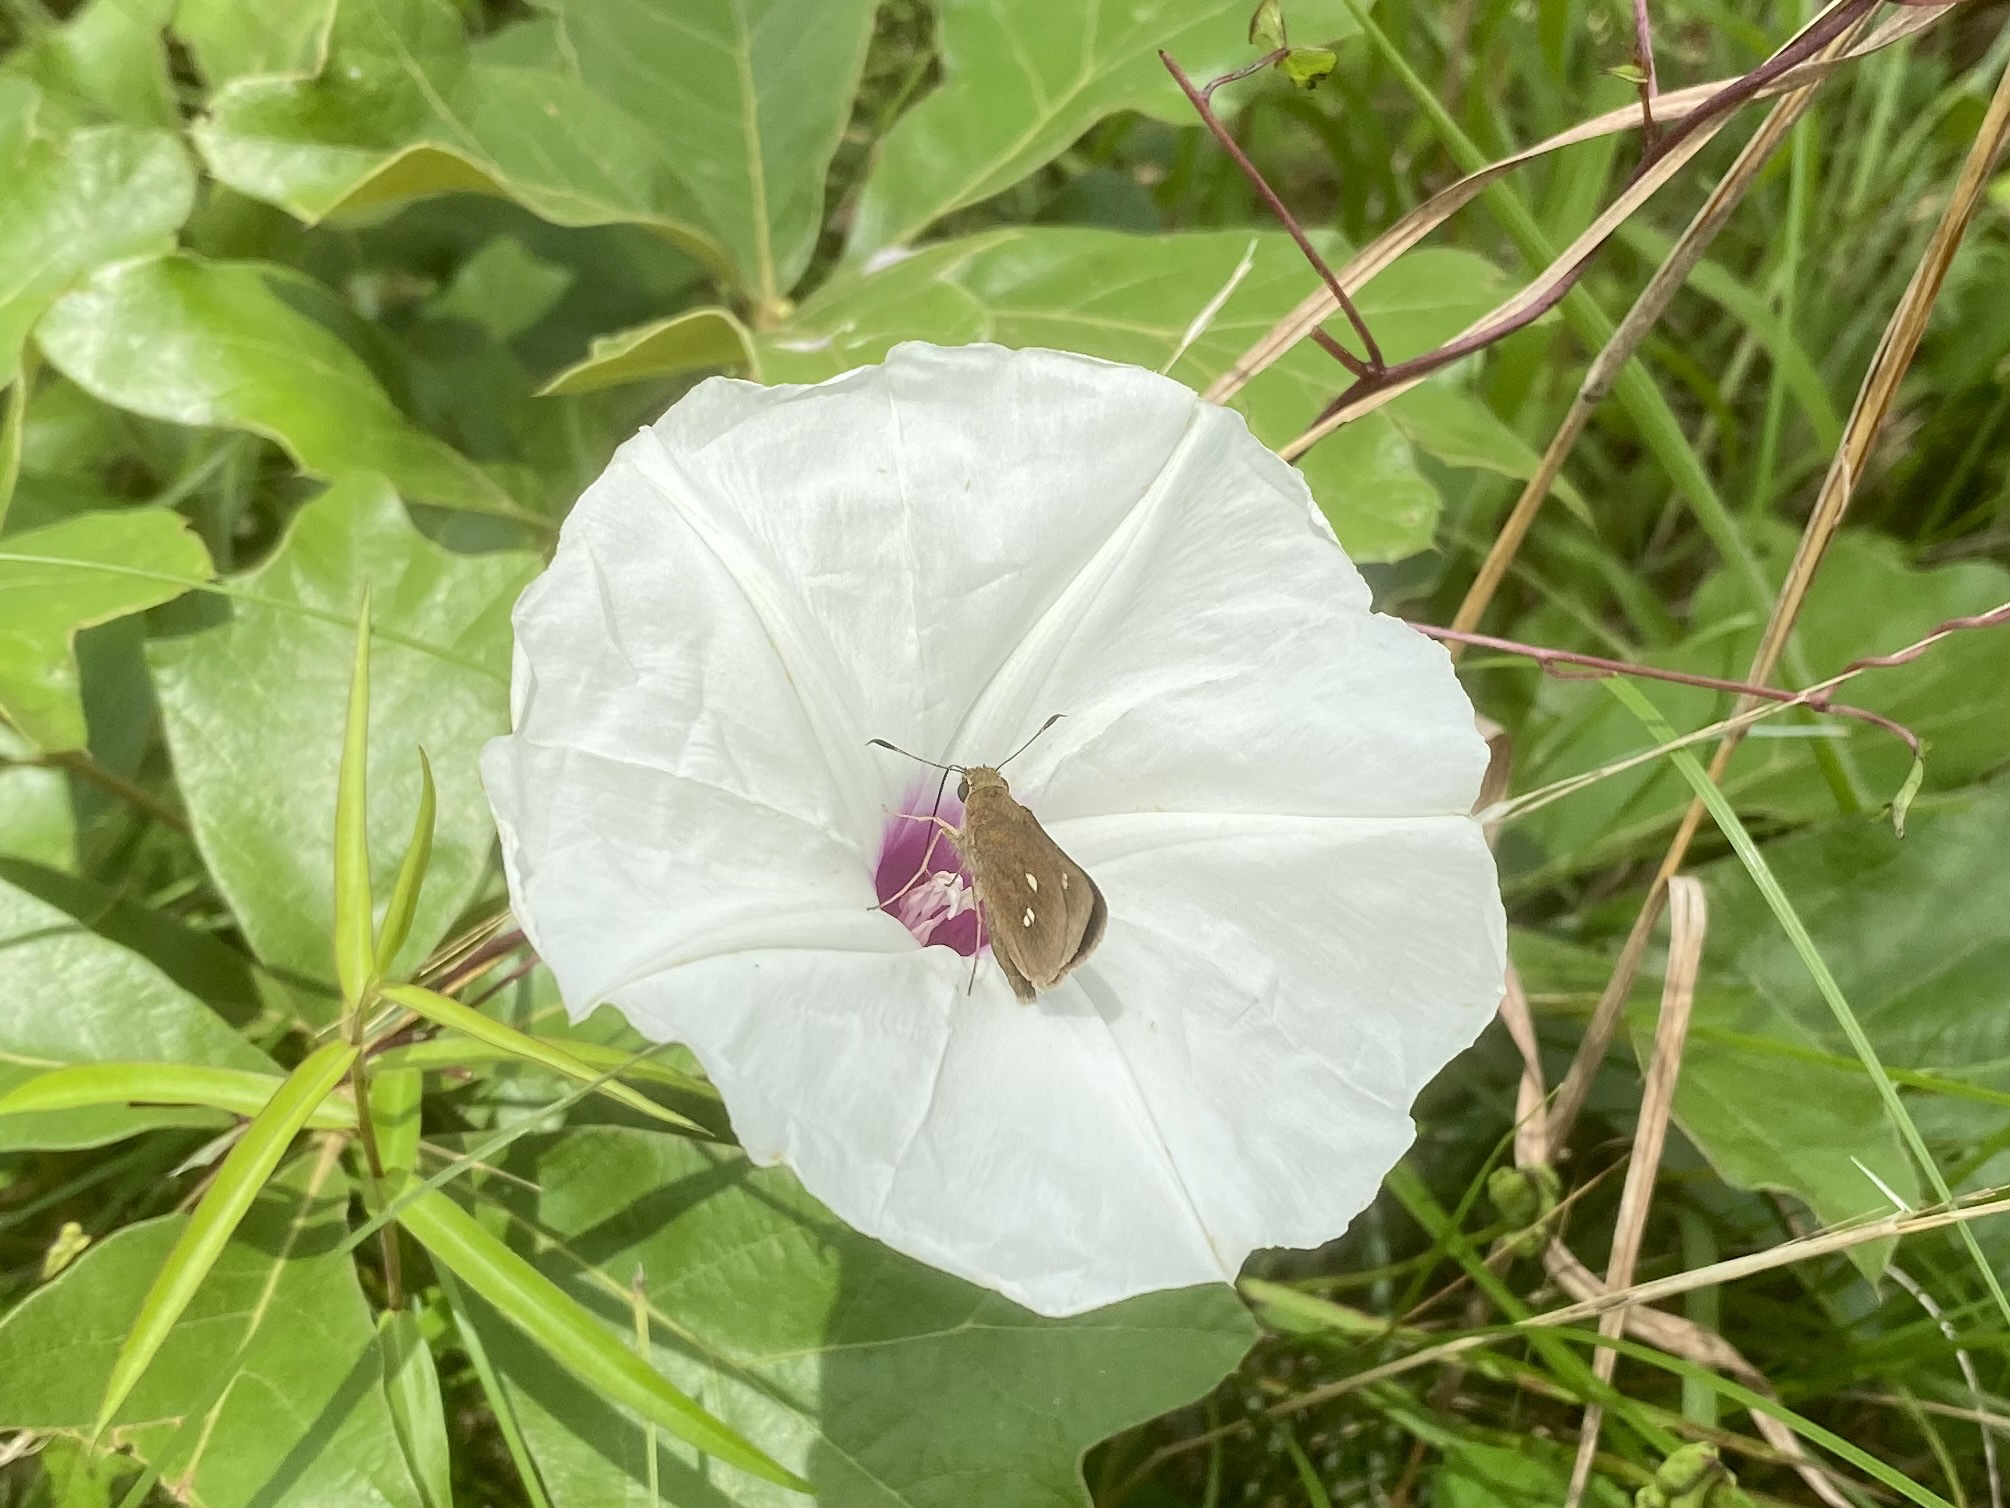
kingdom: Animalia
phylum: Arthropoda
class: Insecta
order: Lepidoptera
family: Hesperiidae
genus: Oligoria
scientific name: Oligoria maculata
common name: Twin-spot skipper
